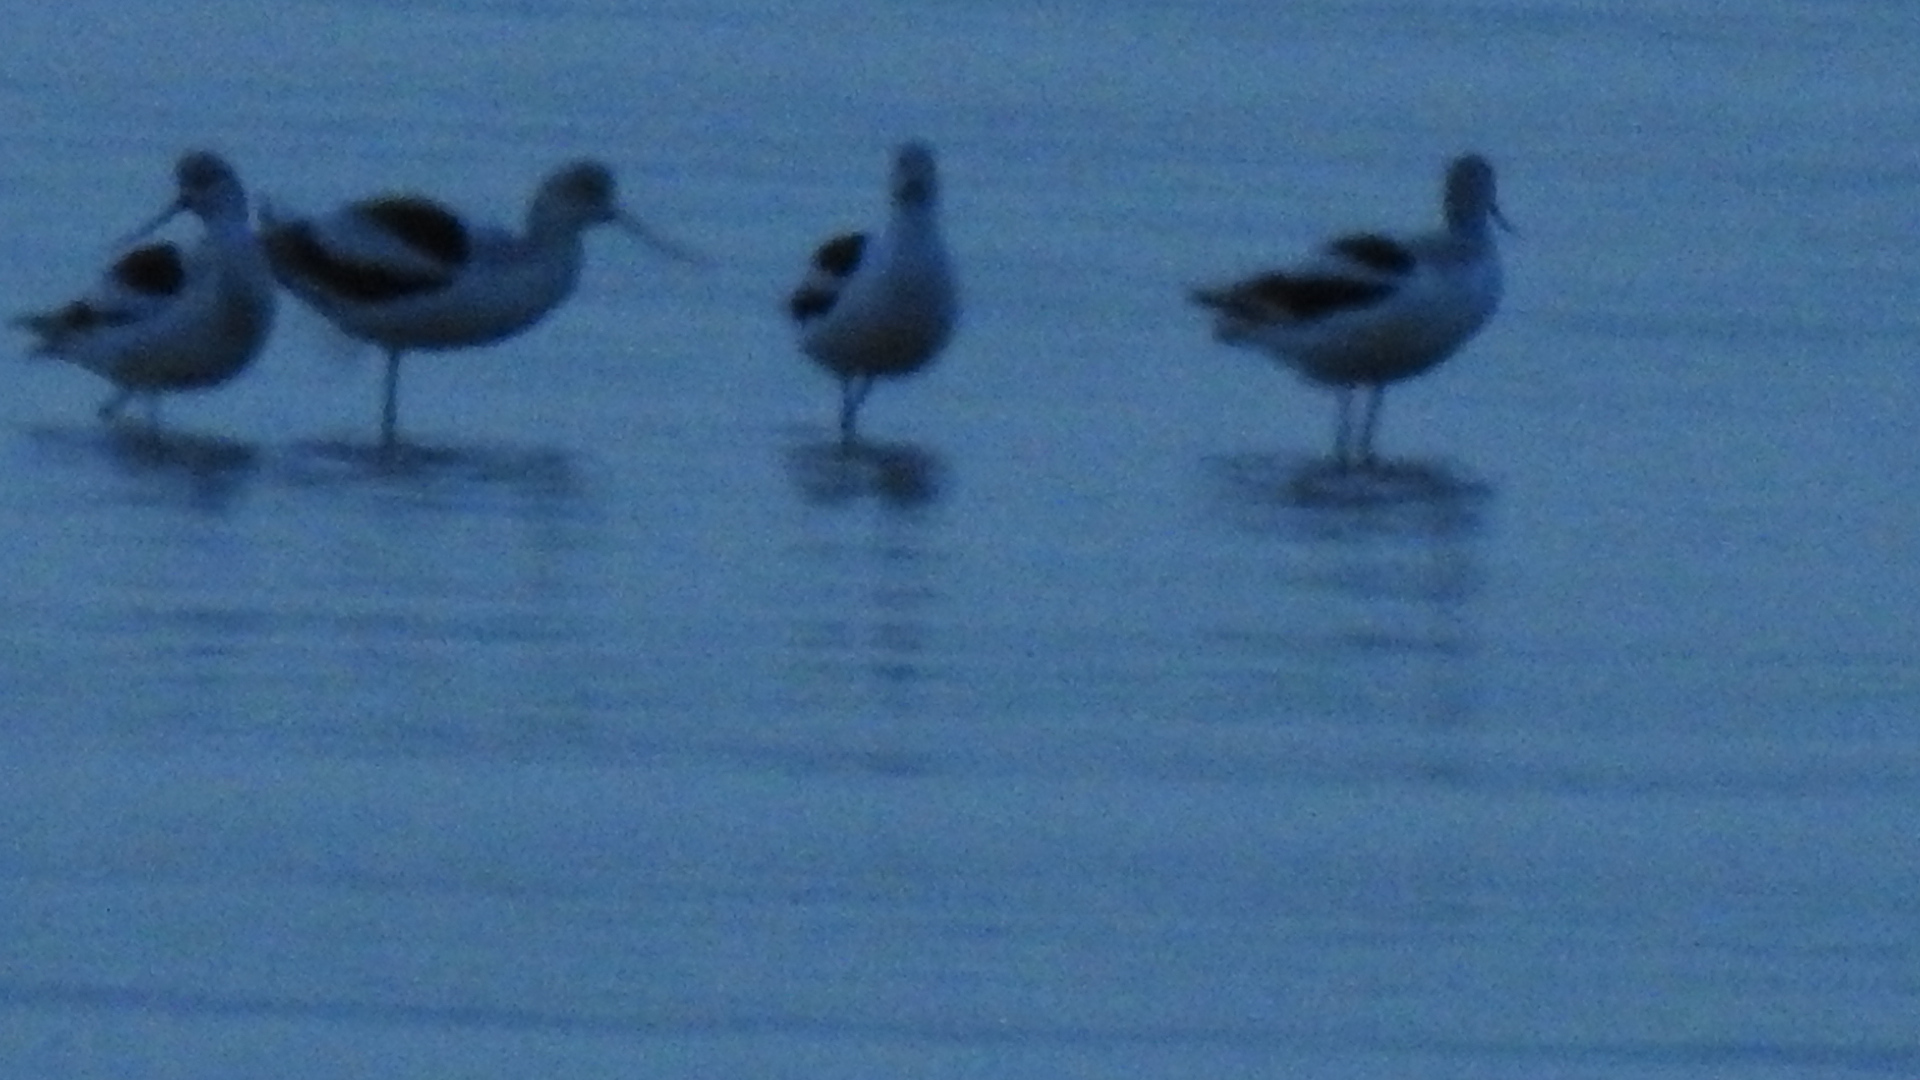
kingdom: Animalia
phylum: Chordata
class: Aves
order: Charadriiformes
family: Recurvirostridae
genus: Recurvirostra
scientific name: Recurvirostra americana
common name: American avocet
